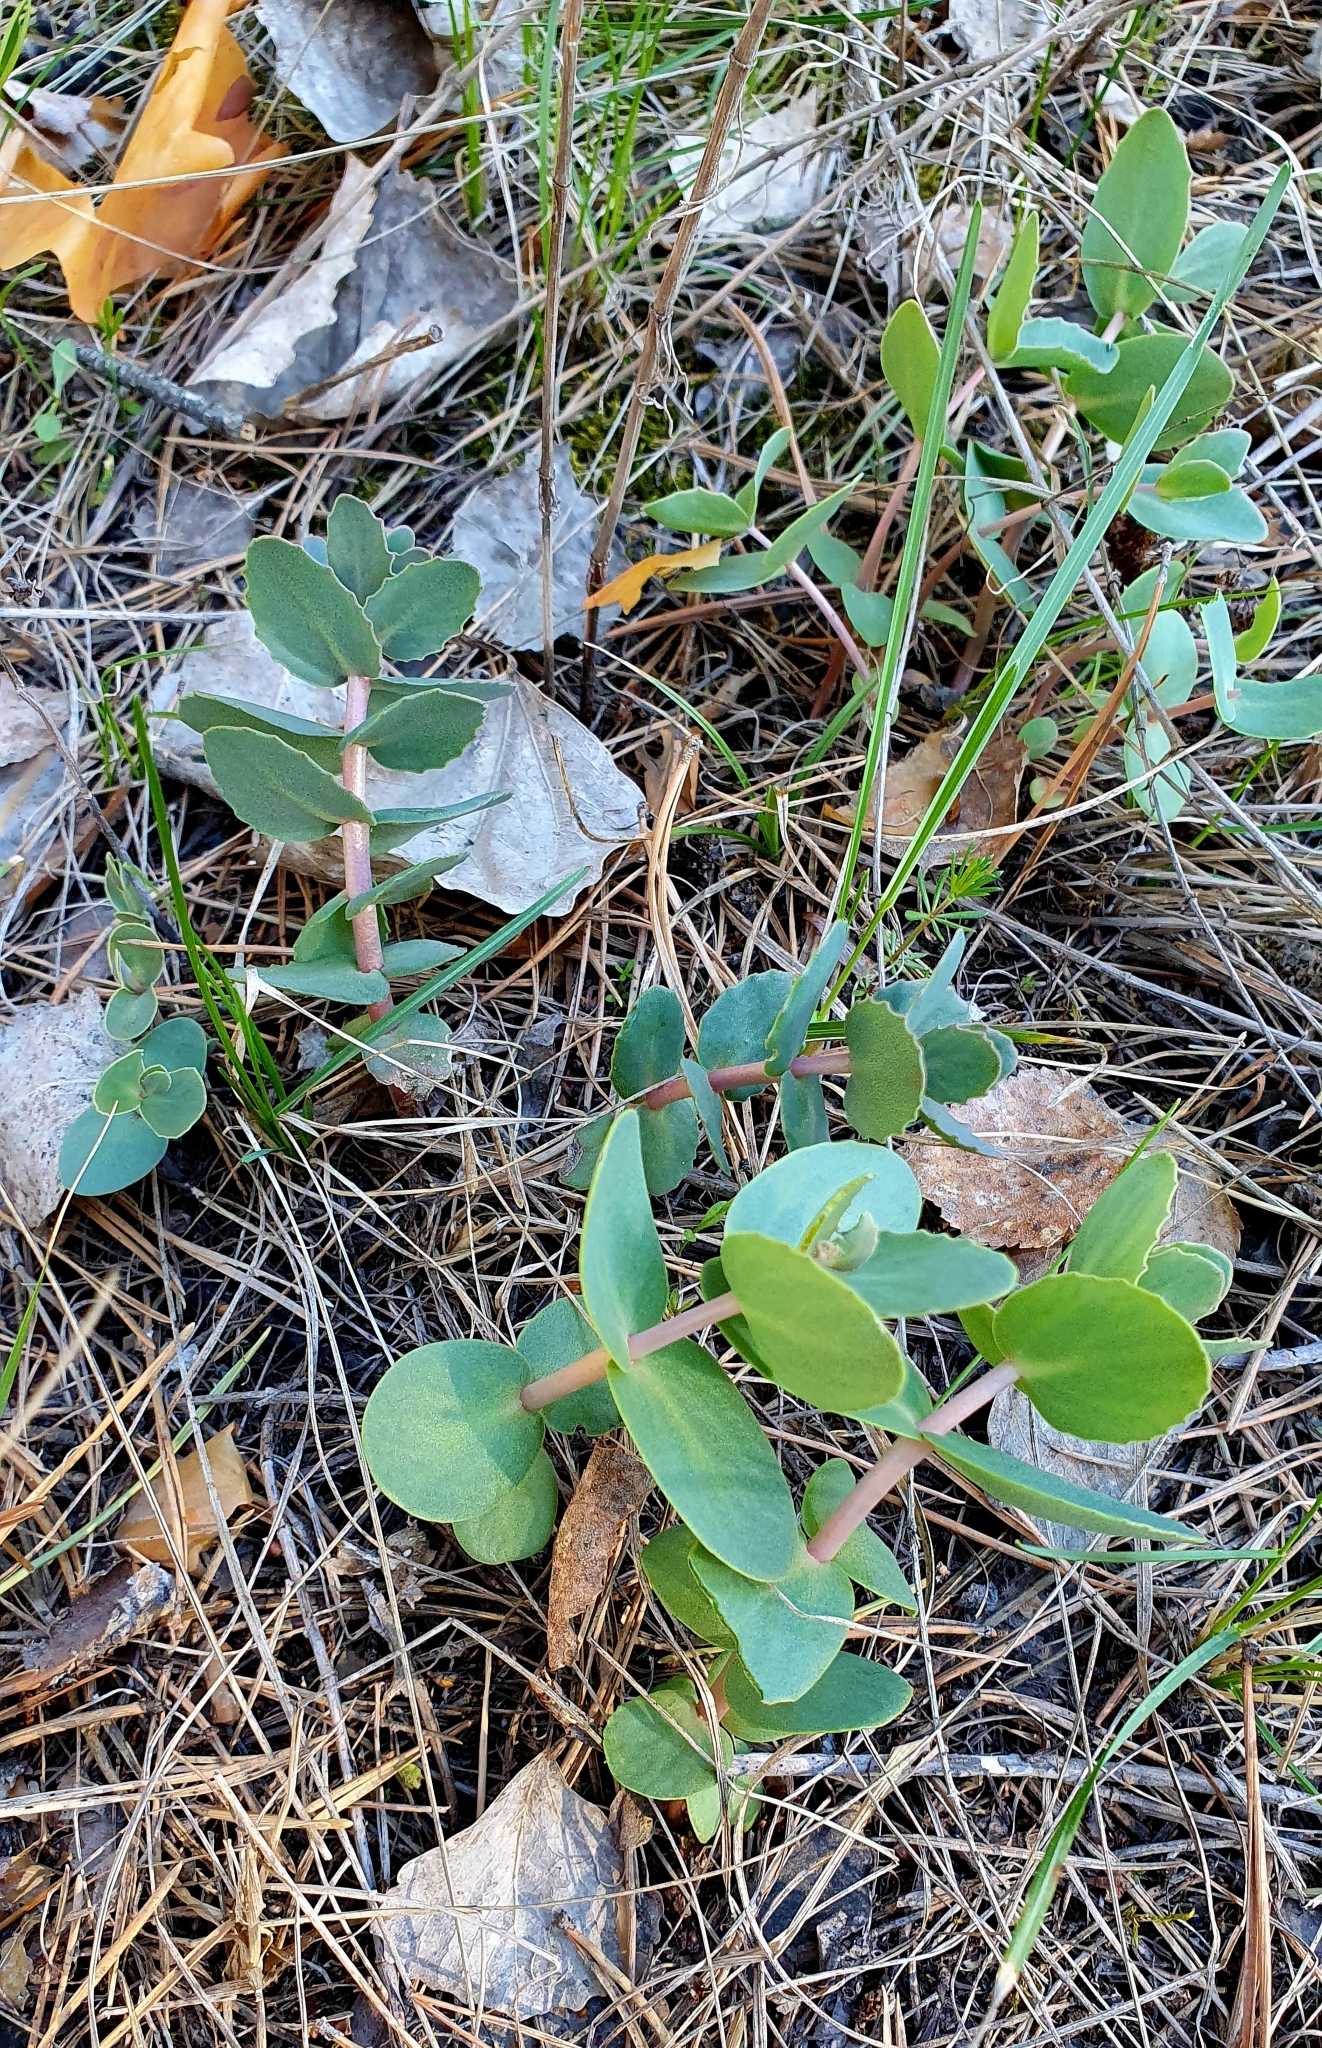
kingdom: Plantae
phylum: Tracheophyta
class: Magnoliopsida
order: Saxifragales
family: Crassulaceae
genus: Hylotelephium
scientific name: Hylotelephium maximum
